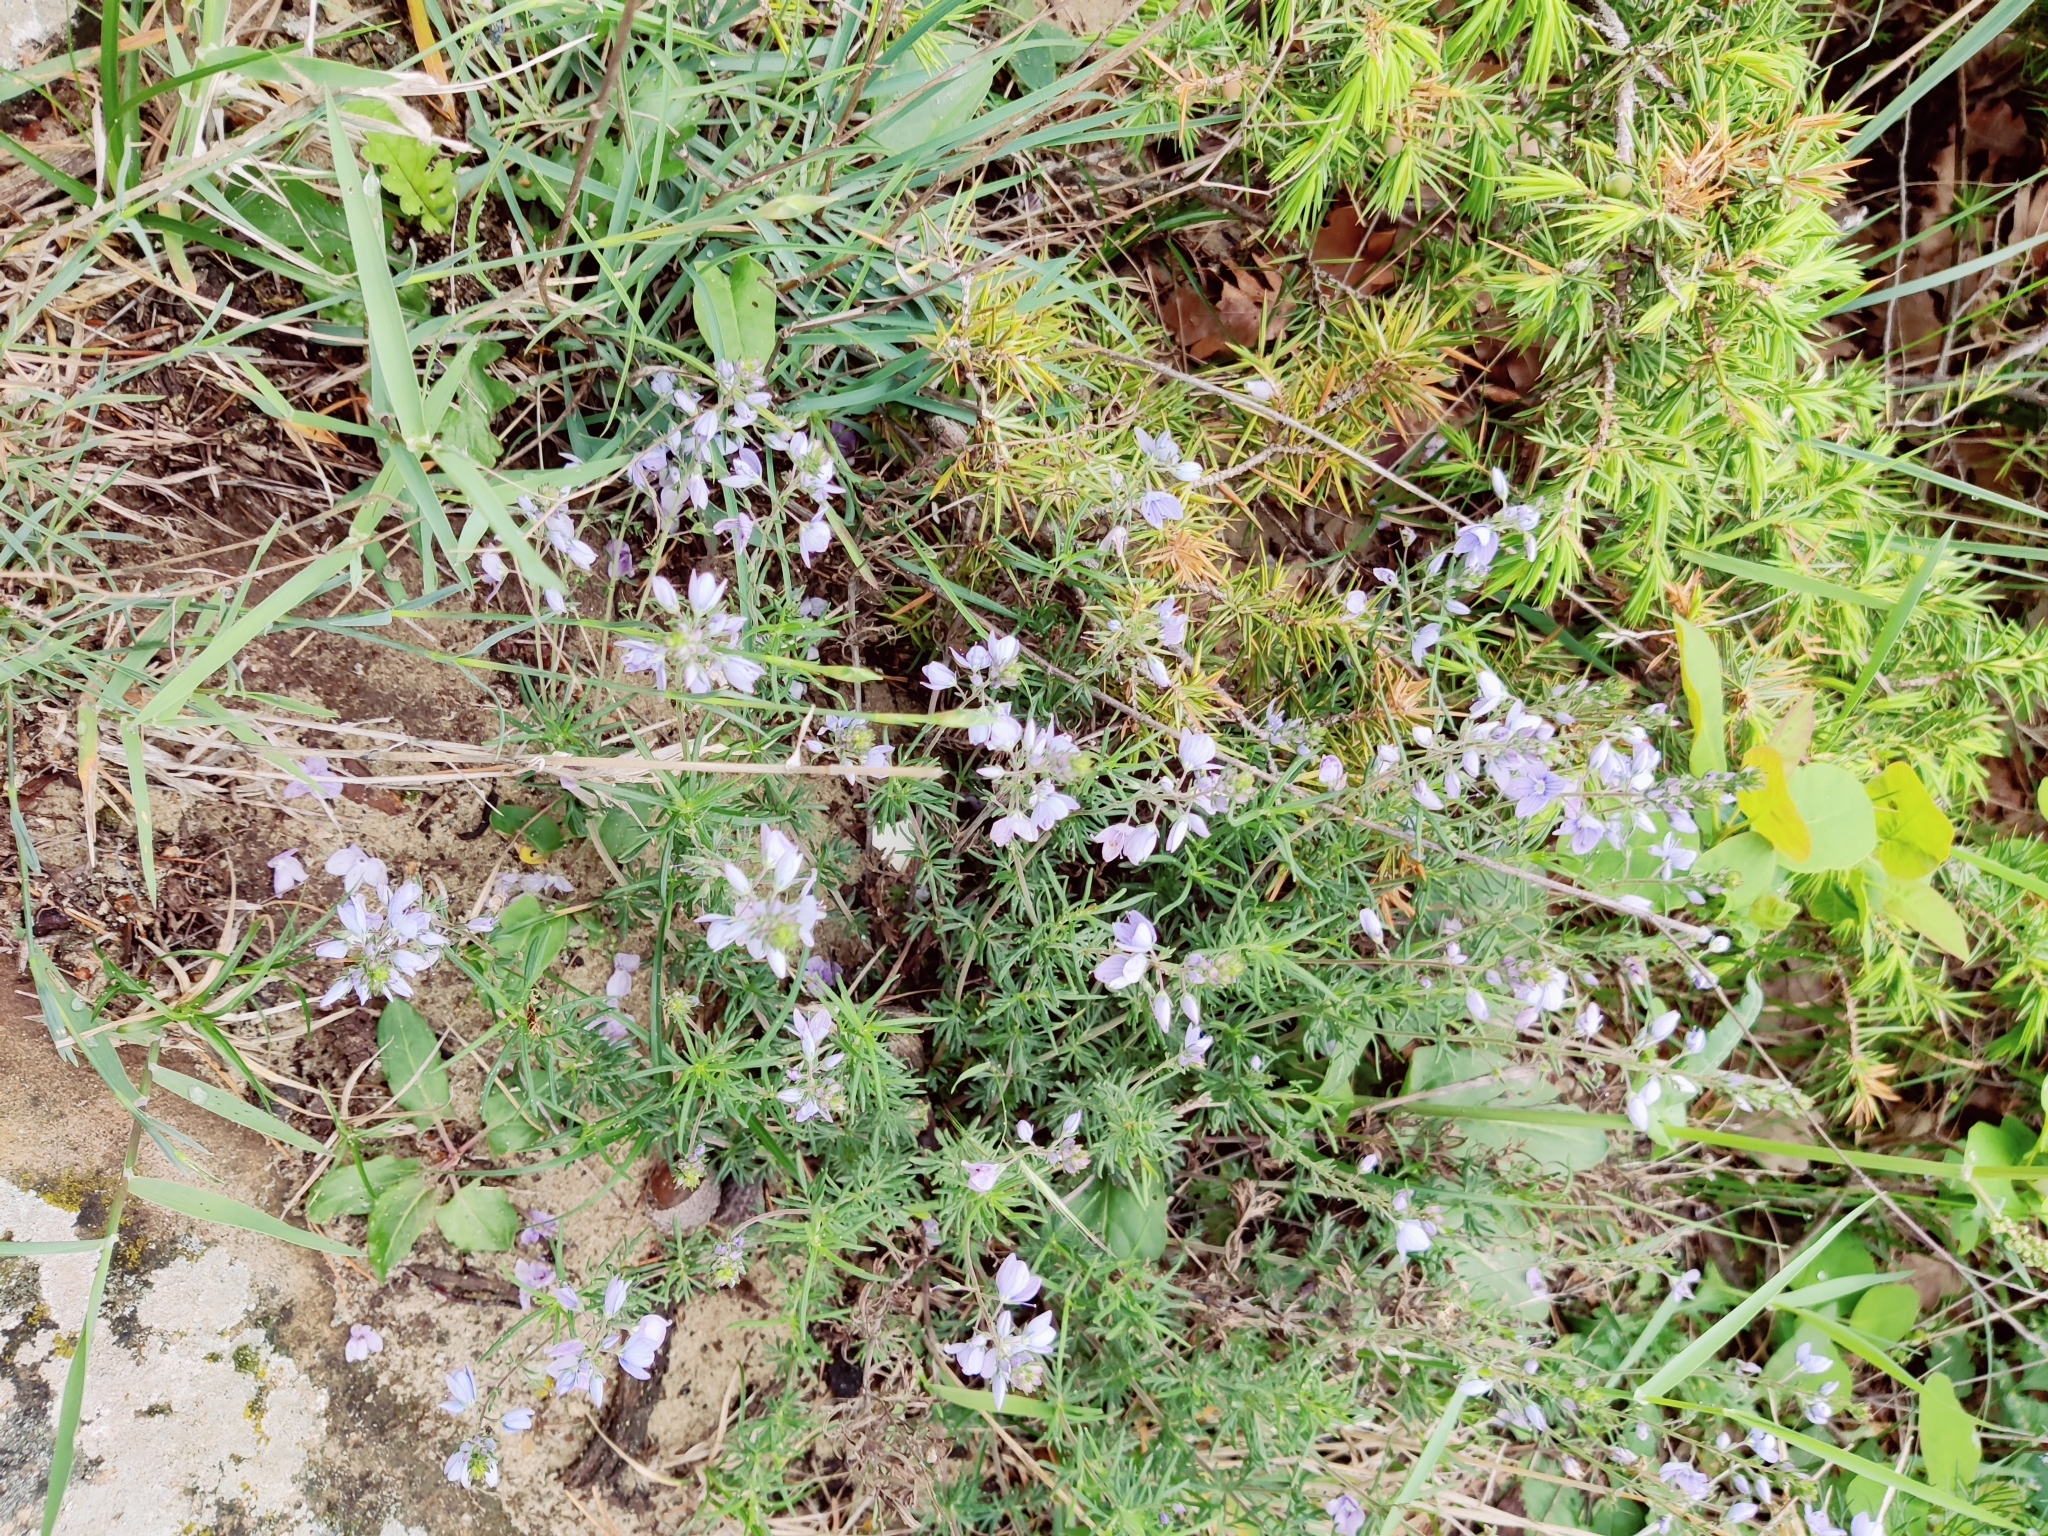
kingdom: Plantae
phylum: Tracheophyta
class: Magnoliopsida
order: Lamiales
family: Plantaginaceae
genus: Veronica
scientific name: Veronica multifida
